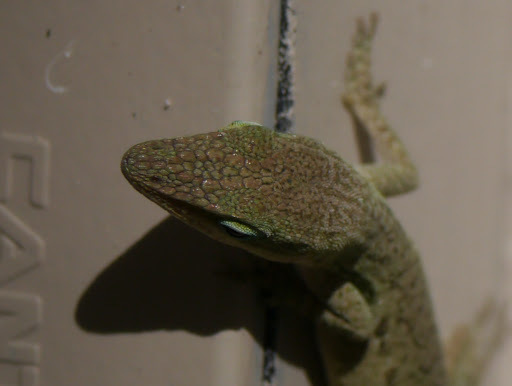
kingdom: Animalia
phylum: Chordata
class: Squamata
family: Dactyloidae
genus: Anolis
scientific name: Anolis carolinensis
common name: Green anole
